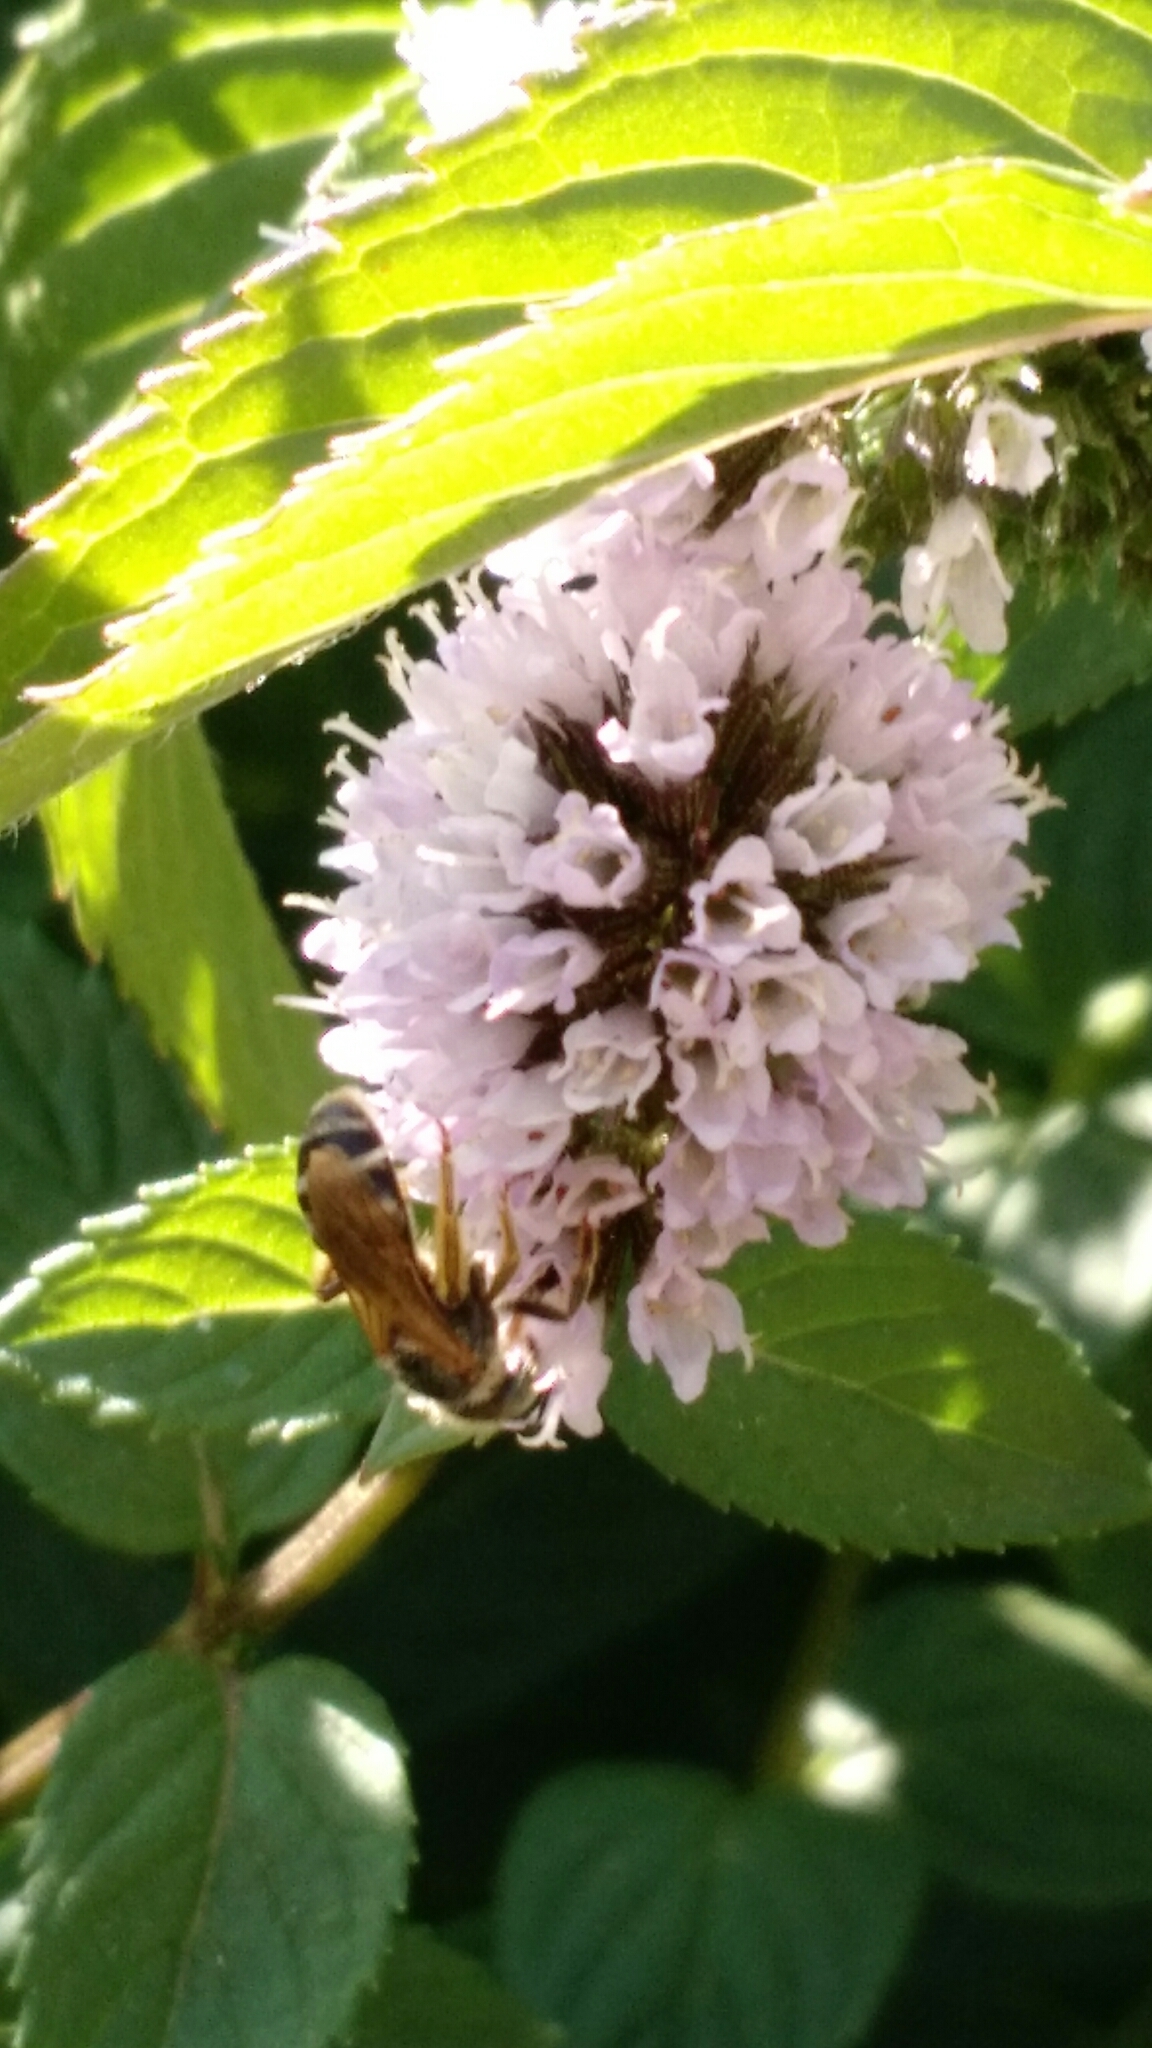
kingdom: Animalia
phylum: Arthropoda
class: Insecta
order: Hymenoptera
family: Halictidae
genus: Halictus
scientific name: Halictus ligatus
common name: Ligated furrow bee
